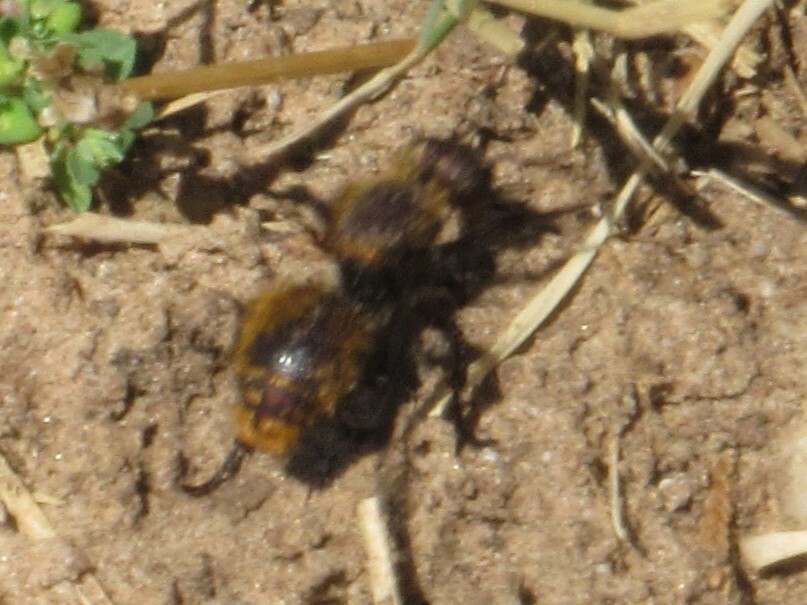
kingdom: Animalia
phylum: Arthropoda
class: Insecta
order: Hymenoptera
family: Mutillidae
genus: Dasymutilla
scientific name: Dasymutilla
